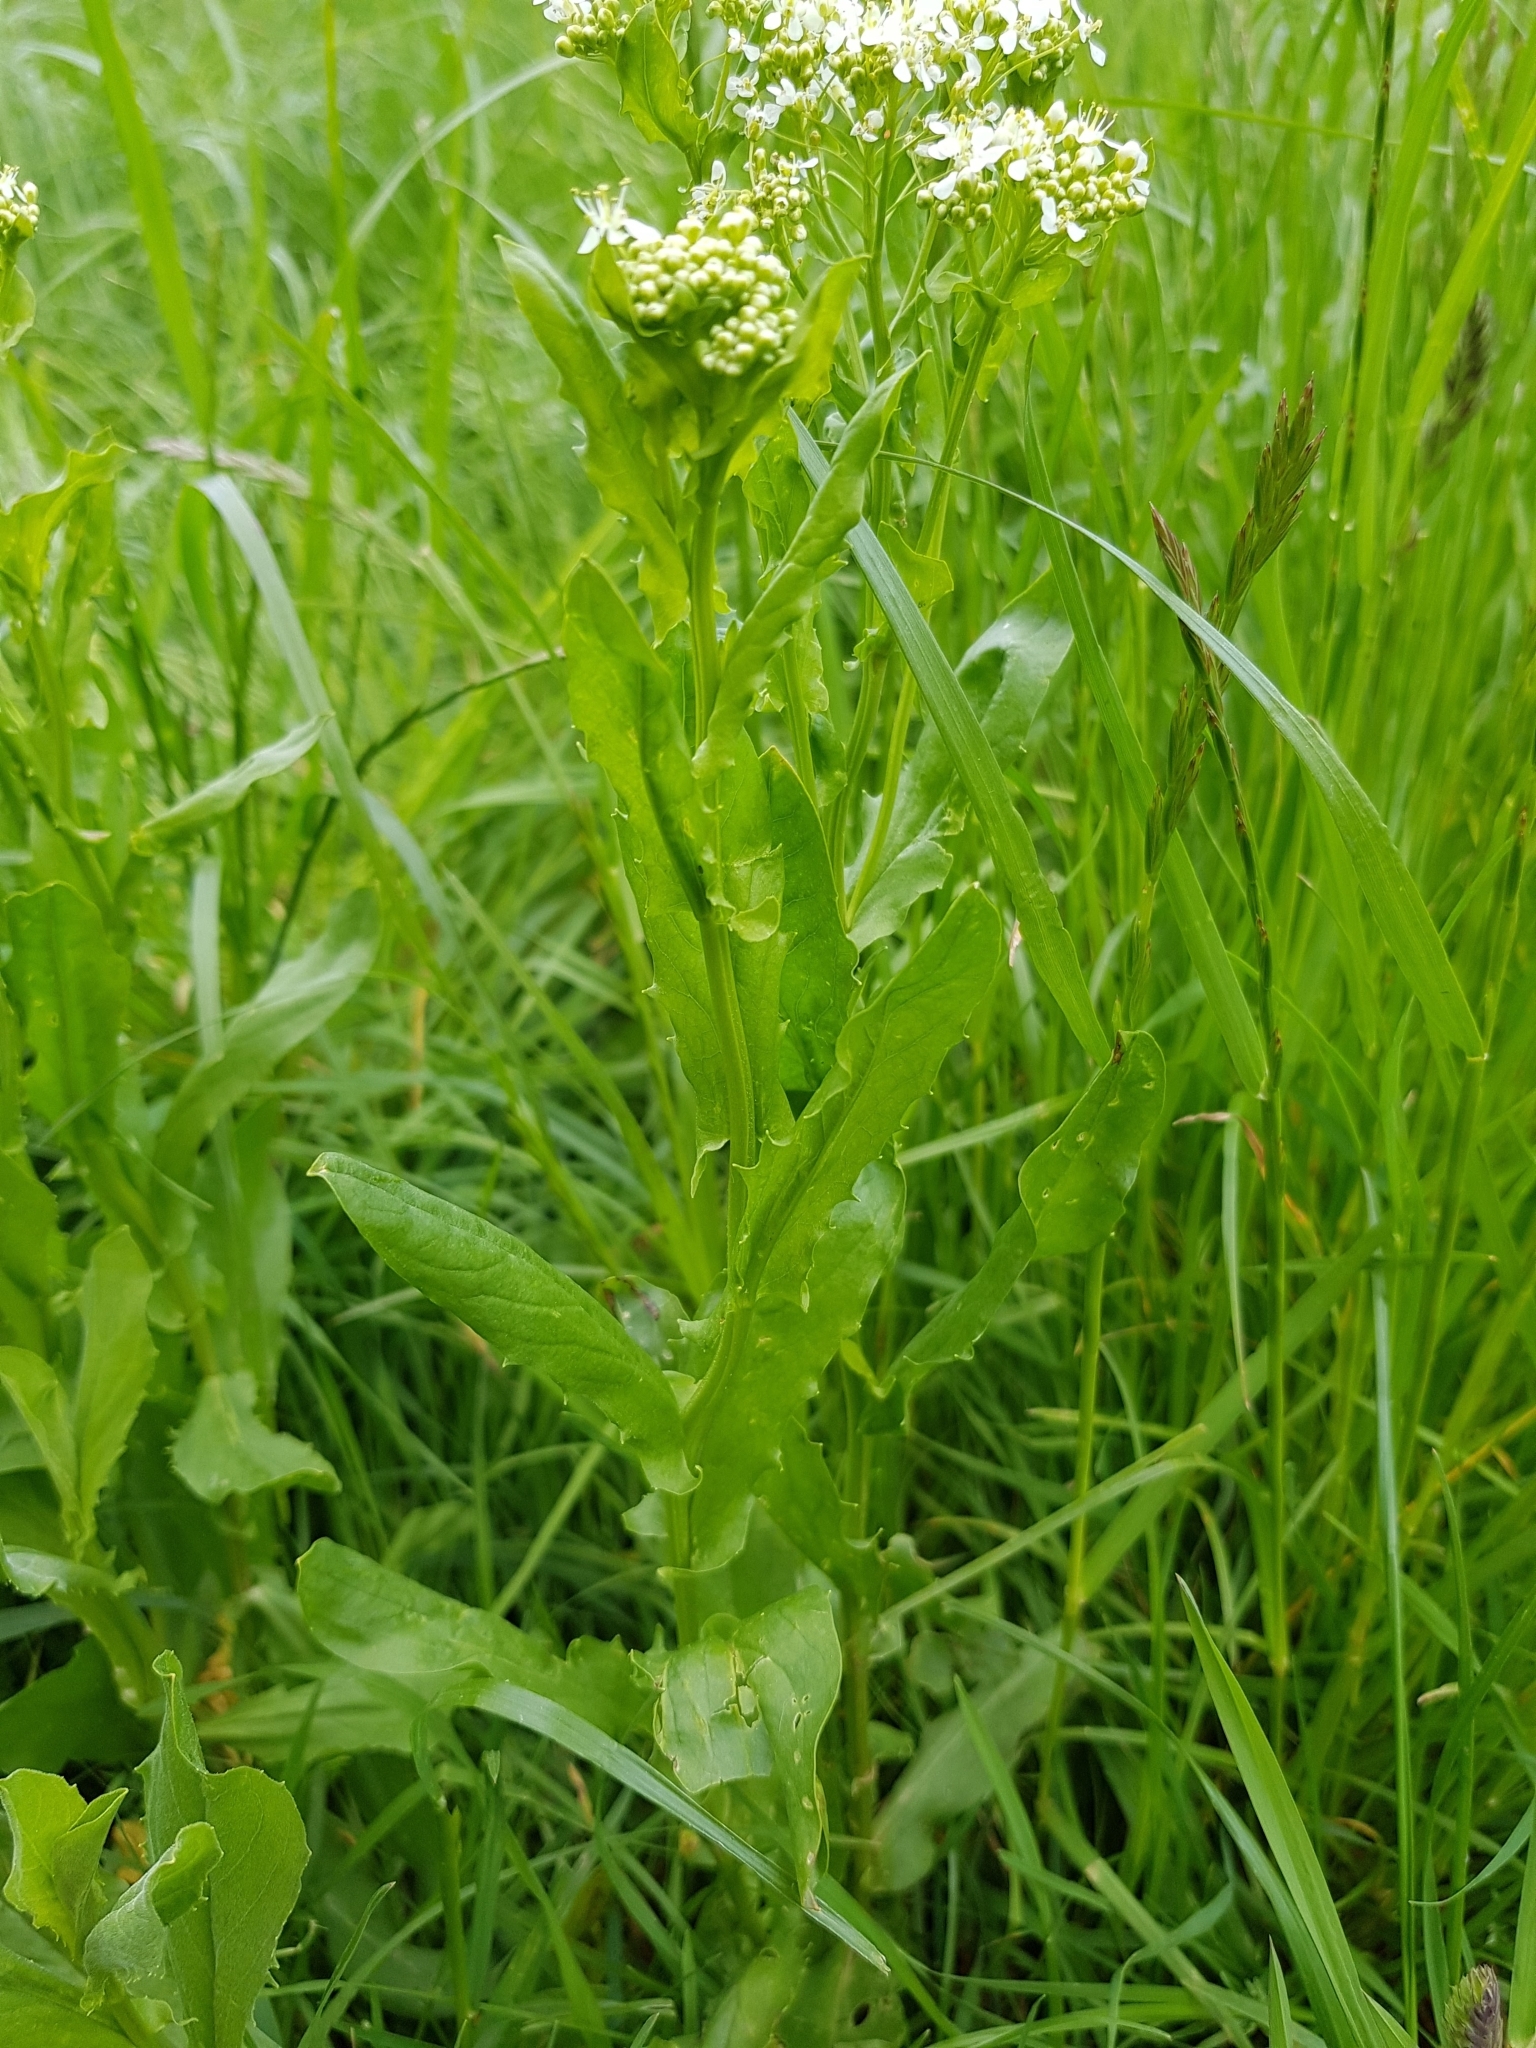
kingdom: Plantae
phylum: Tracheophyta
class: Magnoliopsida
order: Brassicales
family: Brassicaceae
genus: Lepidium
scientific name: Lepidium draba
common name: Hoary cress
